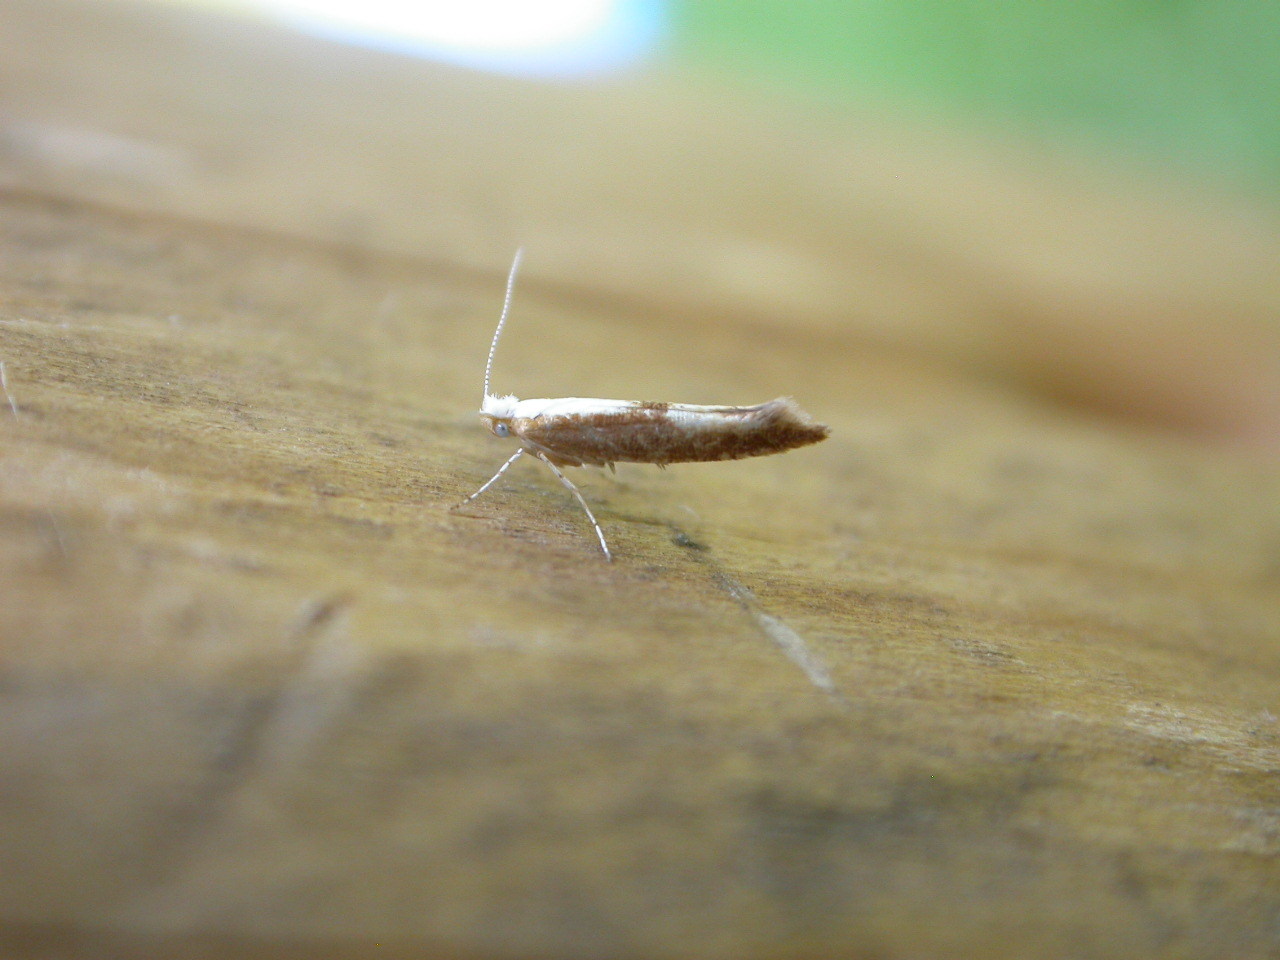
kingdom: Animalia
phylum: Arthropoda
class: Insecta
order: Lepidoptera
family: Argyresthiidae
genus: Argyresthia
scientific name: Argyresthia albistria
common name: Purple argent
